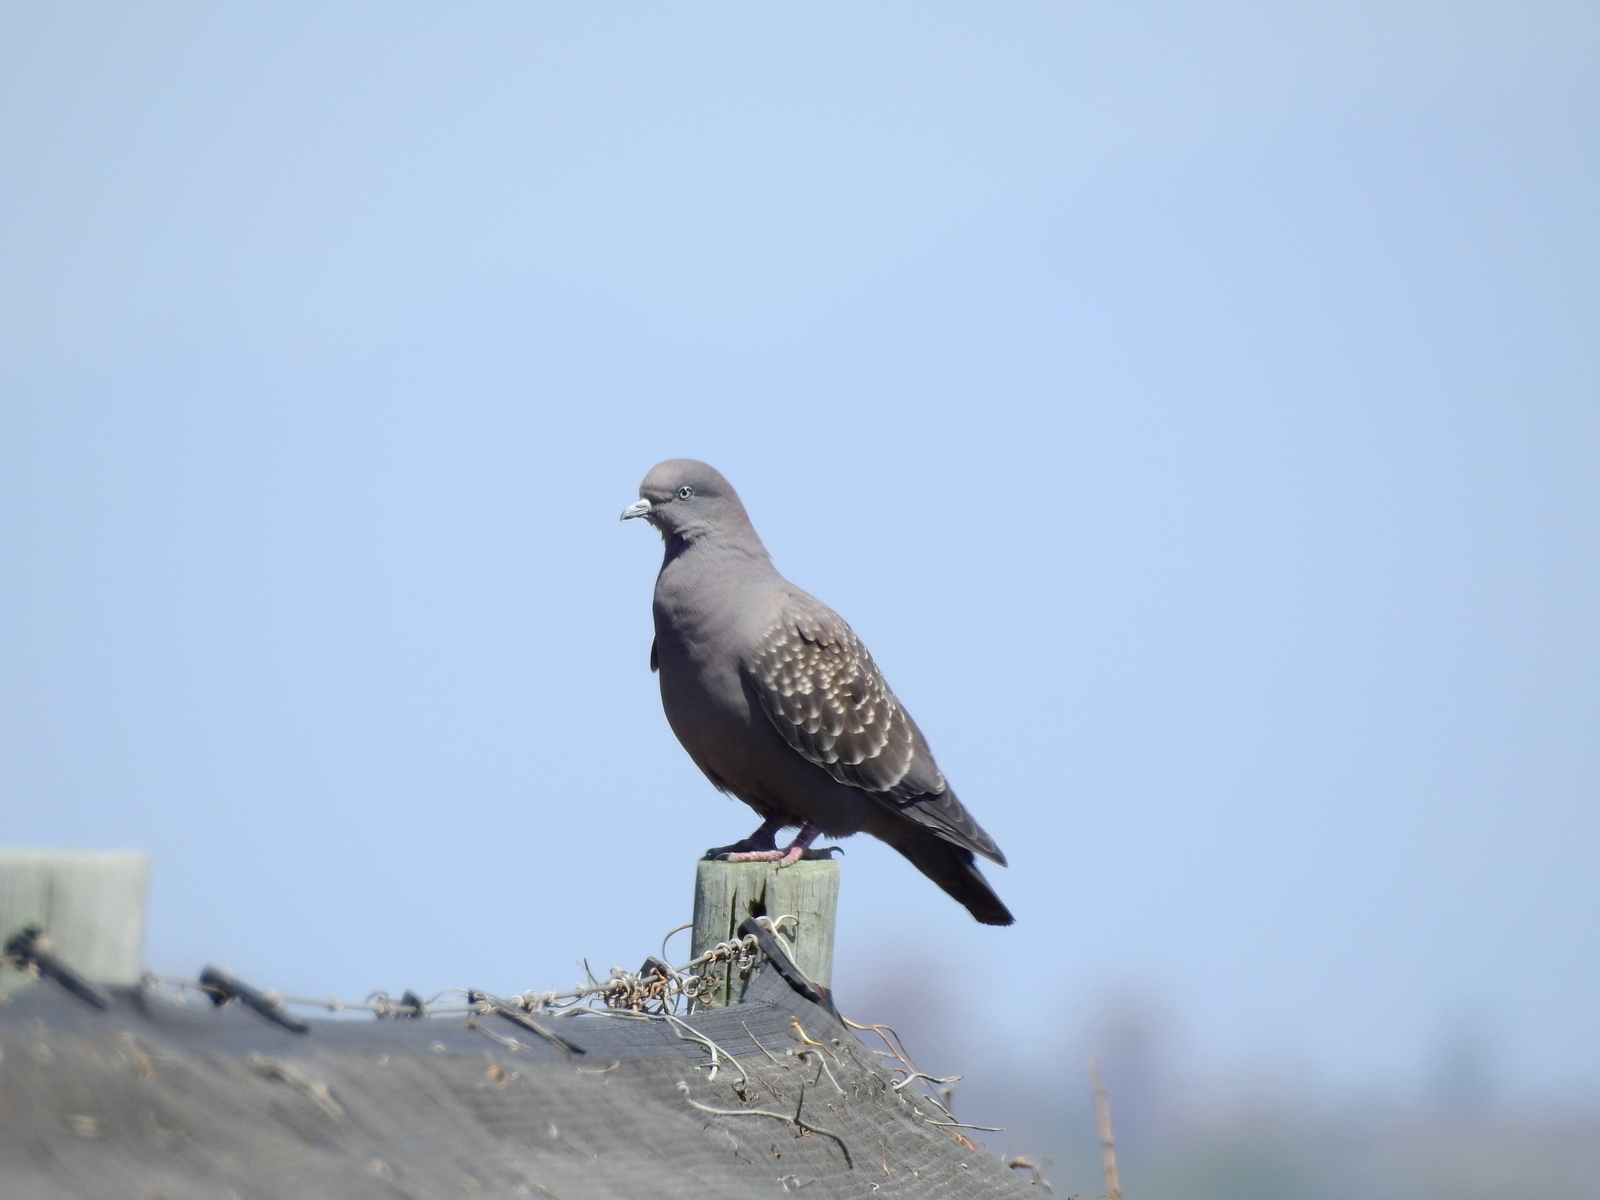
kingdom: Animalia
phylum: Chordata
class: Aves
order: Columbiformes
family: Columbidae
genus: Patagioenas
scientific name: Patagioenas maculosa
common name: Spot-winged pigeon
